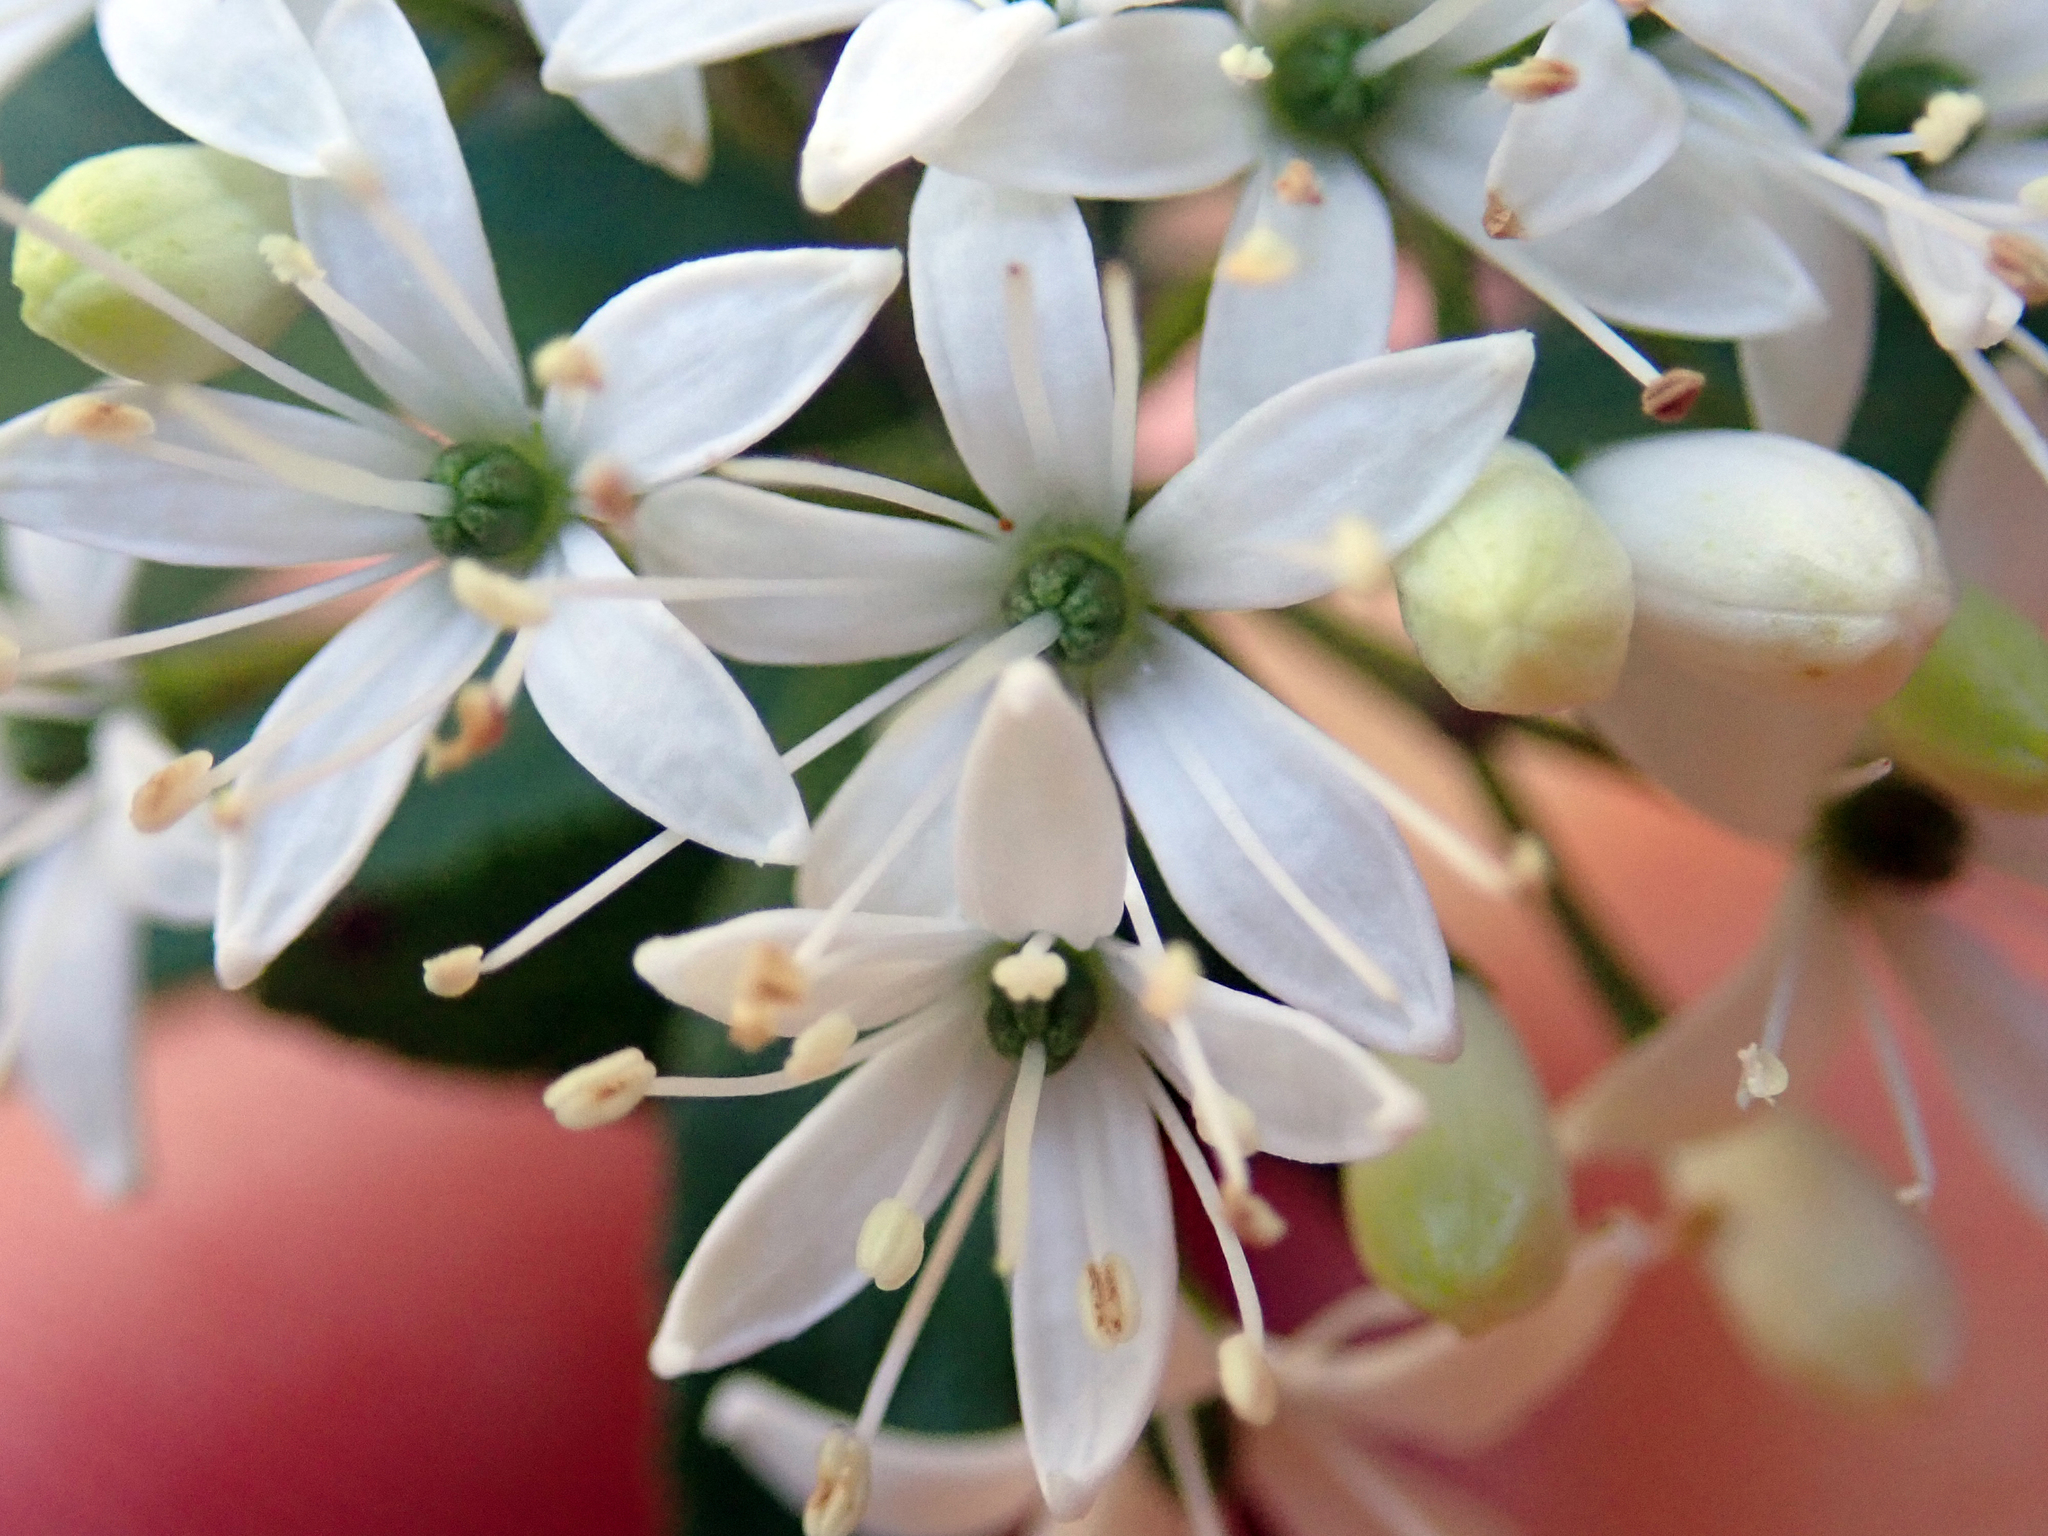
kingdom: Plantae
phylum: Tracheophyta
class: Magnoliopsida
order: Sapindales
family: Rutaceae
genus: Leionema
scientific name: Leionema nudum
